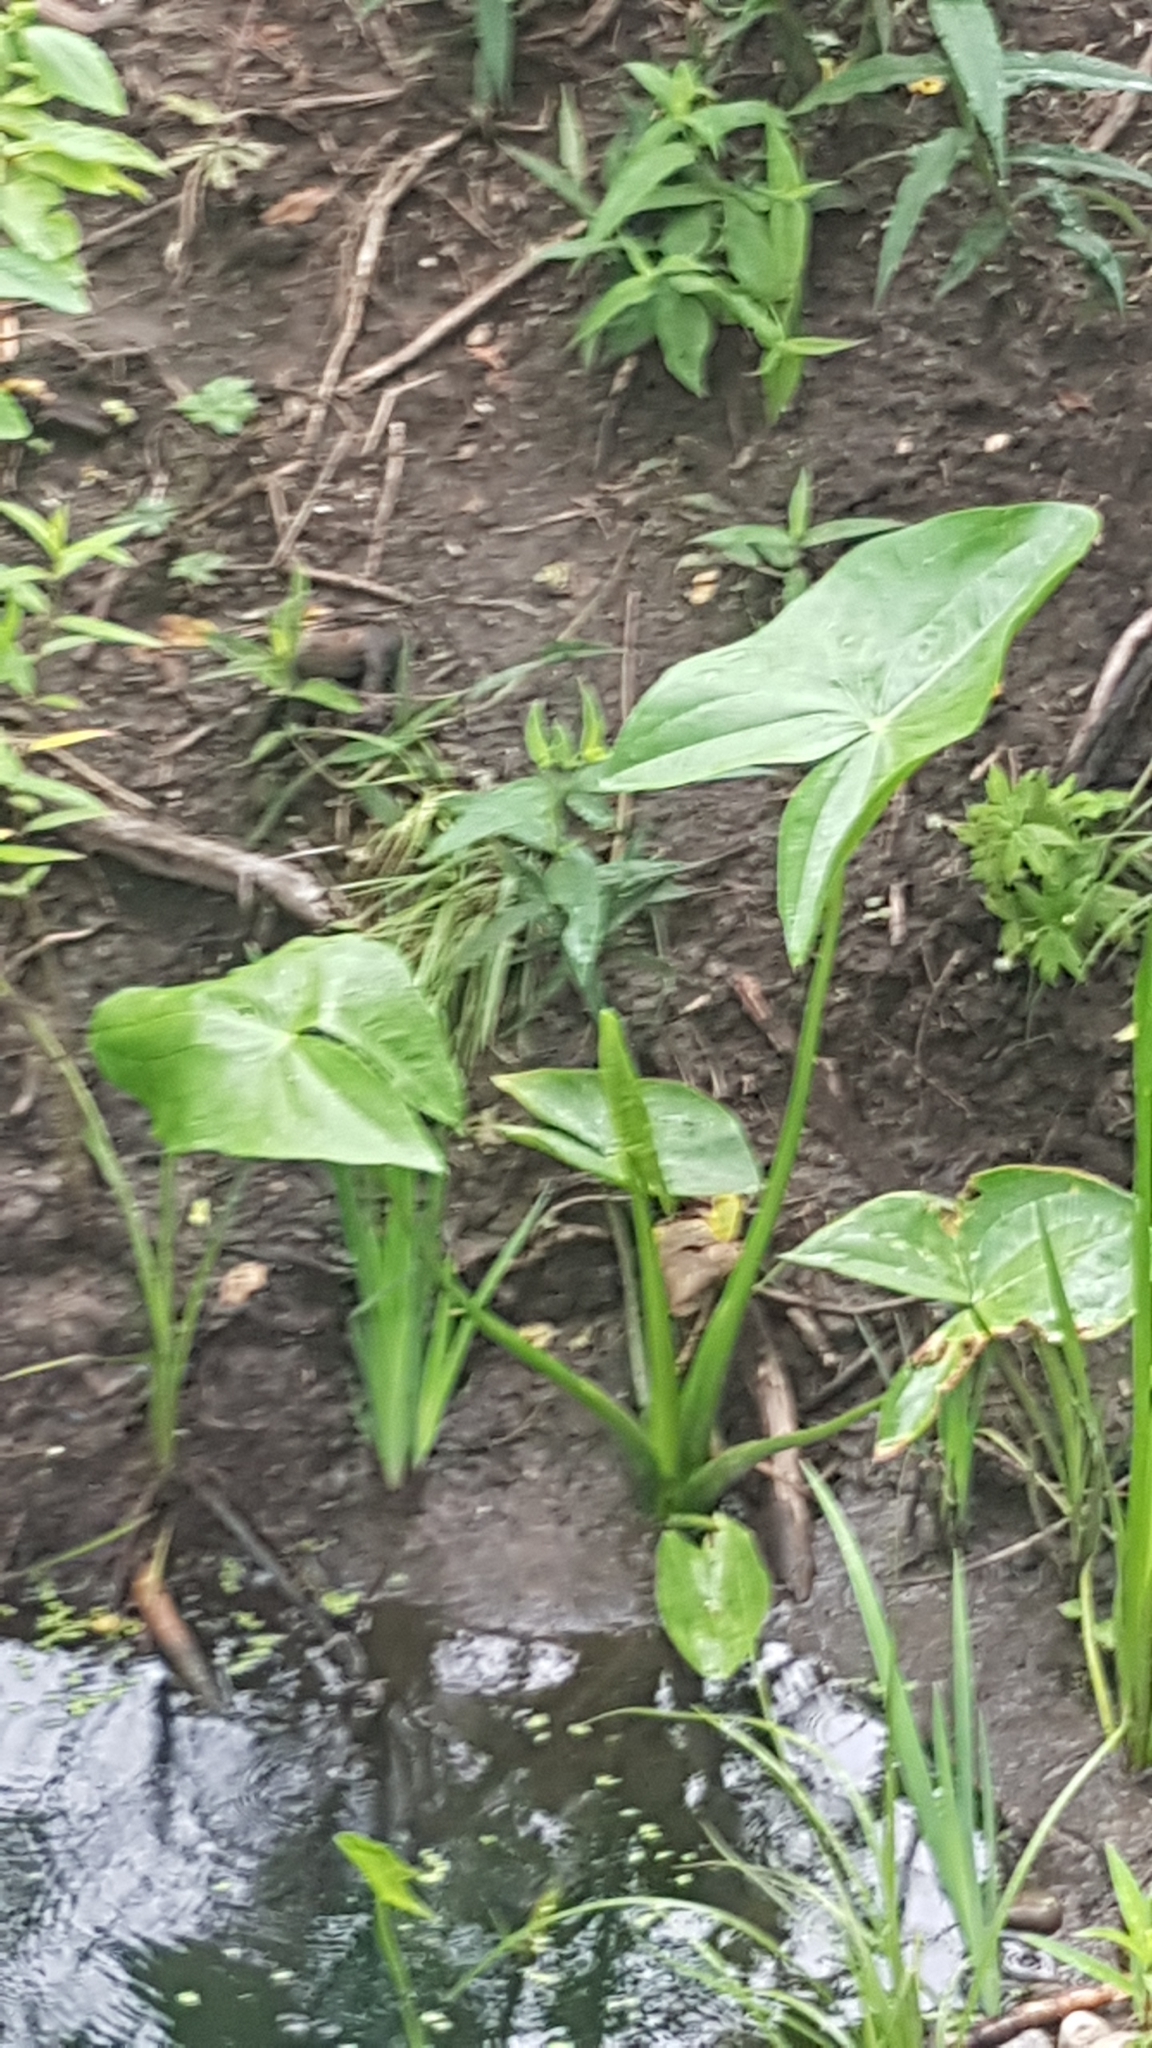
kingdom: Plantae
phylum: Tracheophyta
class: Liliopsida
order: Alismatales
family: Alismataceae
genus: Sagittaria
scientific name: Sagittaria latifolia
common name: Duck-potato
